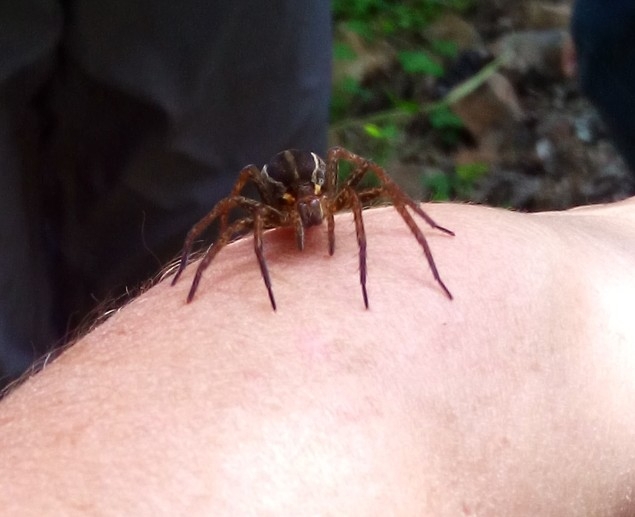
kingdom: Animalia
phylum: Arthropoda
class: Arachnida
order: Araneae
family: Pisauridae
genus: Dolomedes
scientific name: Dolomedes
